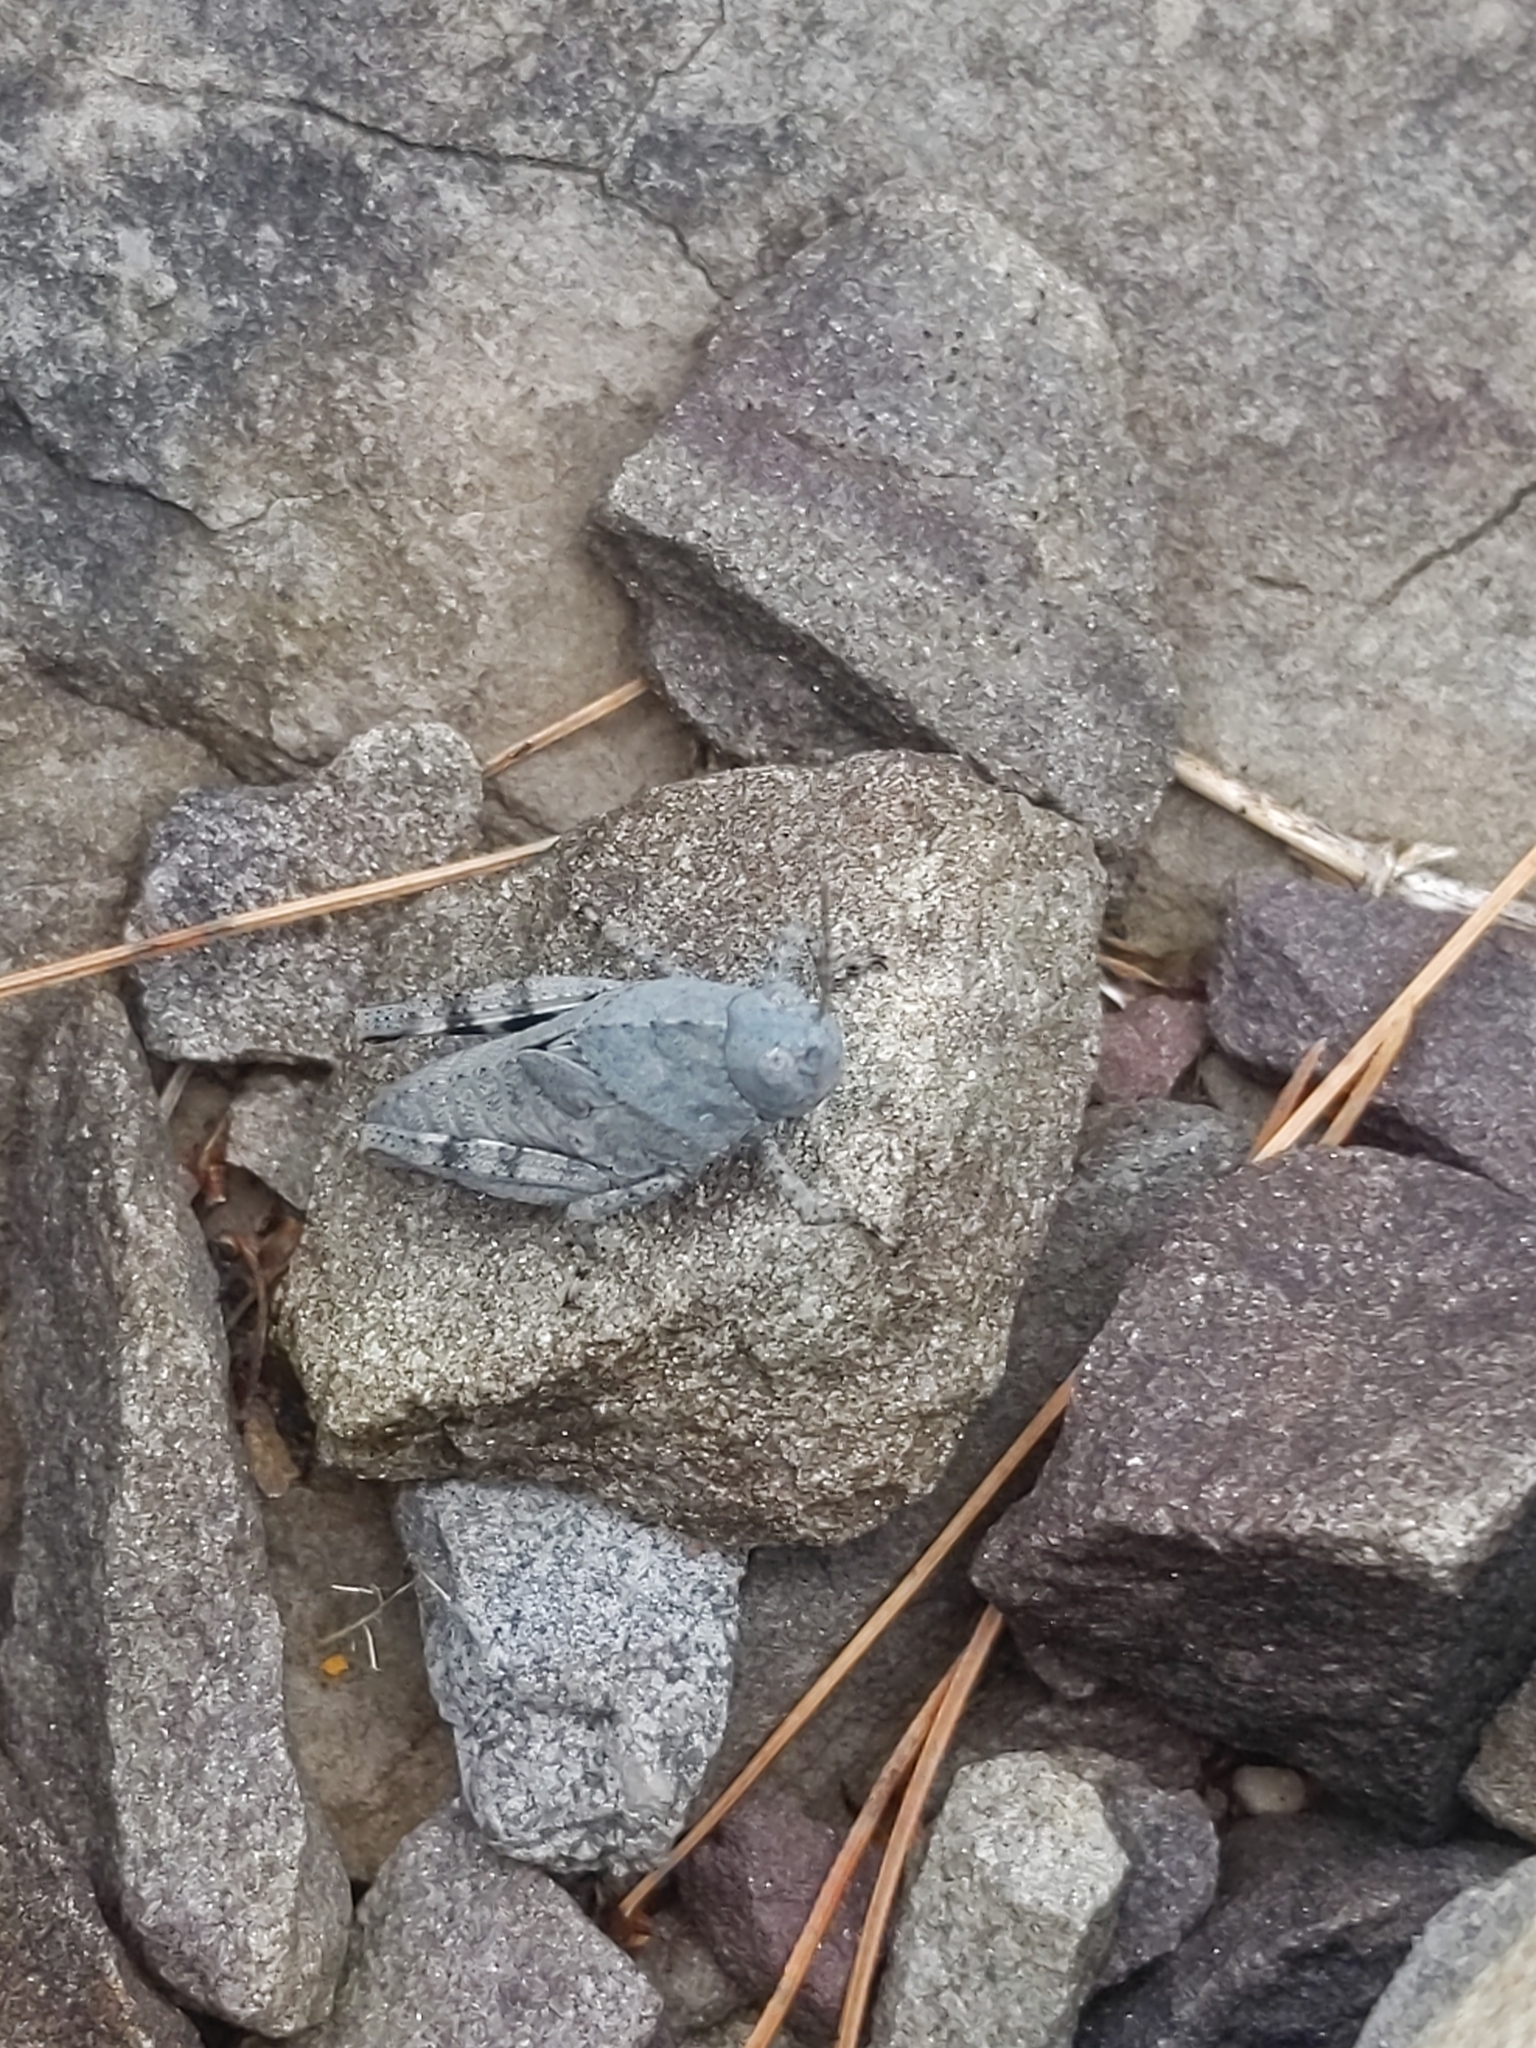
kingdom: Animalia
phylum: Arthropoda
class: Insecta
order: Orthoptera
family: Acrididae
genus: Dissosteira
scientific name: Dissosteira carolina
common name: Carolina grasshopper
